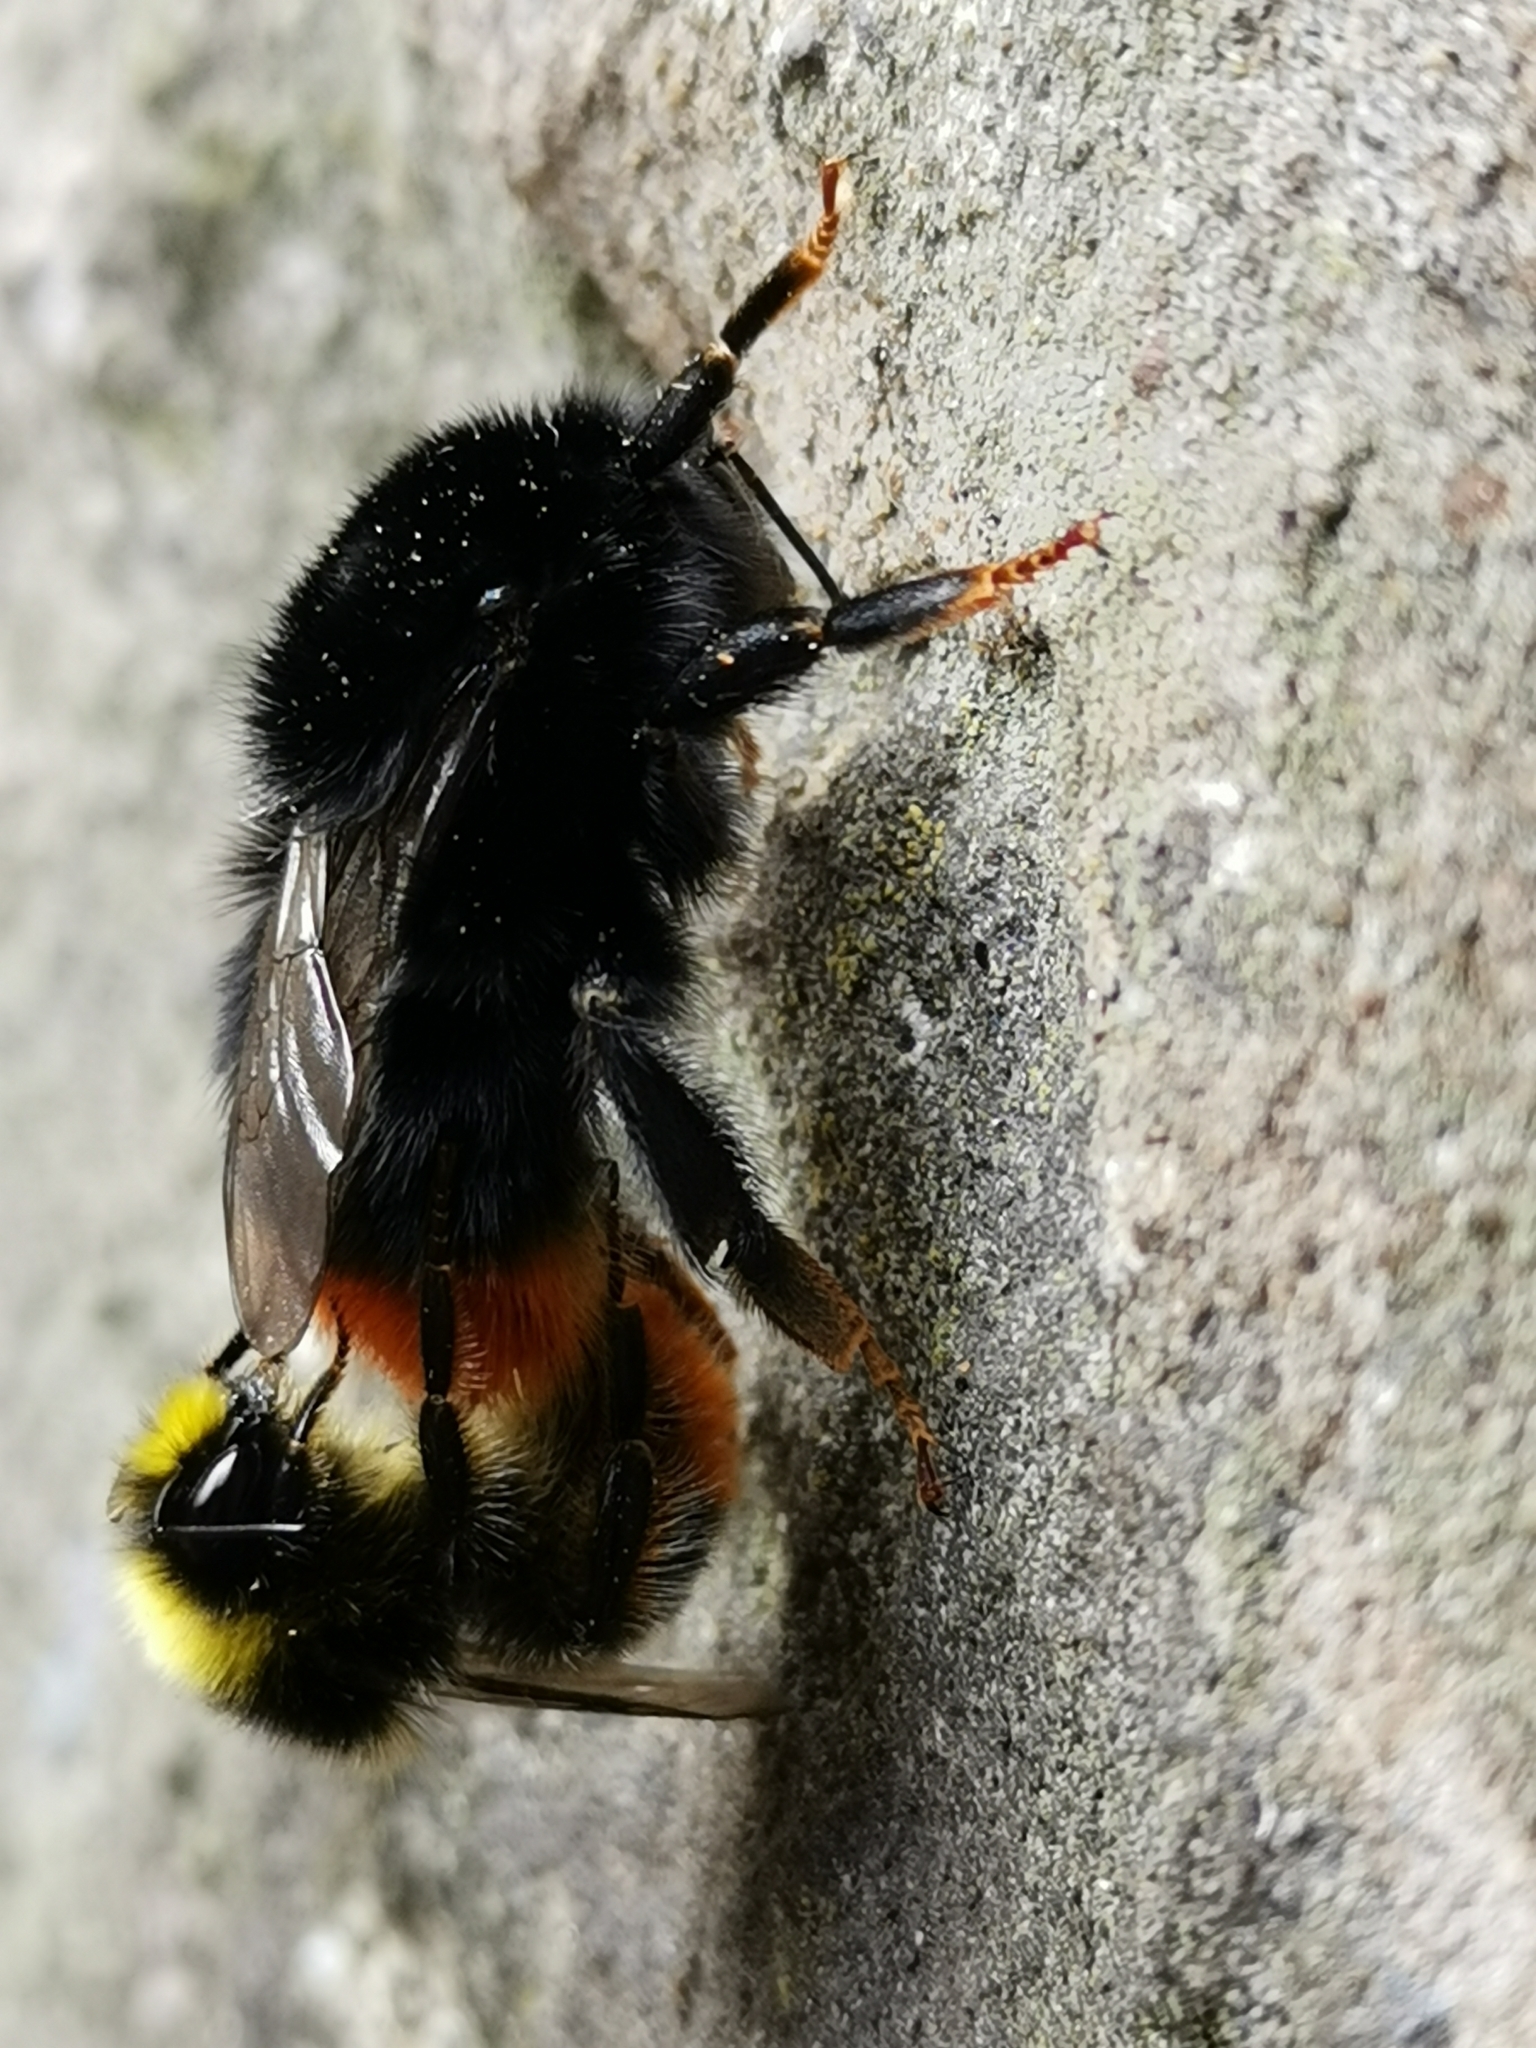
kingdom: Animalia
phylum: Arthropoda
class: Insecta
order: Hymenoptera
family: Apidae
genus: Bombus
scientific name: Bombus lapidarius
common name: Large red-tailed humble-bee
